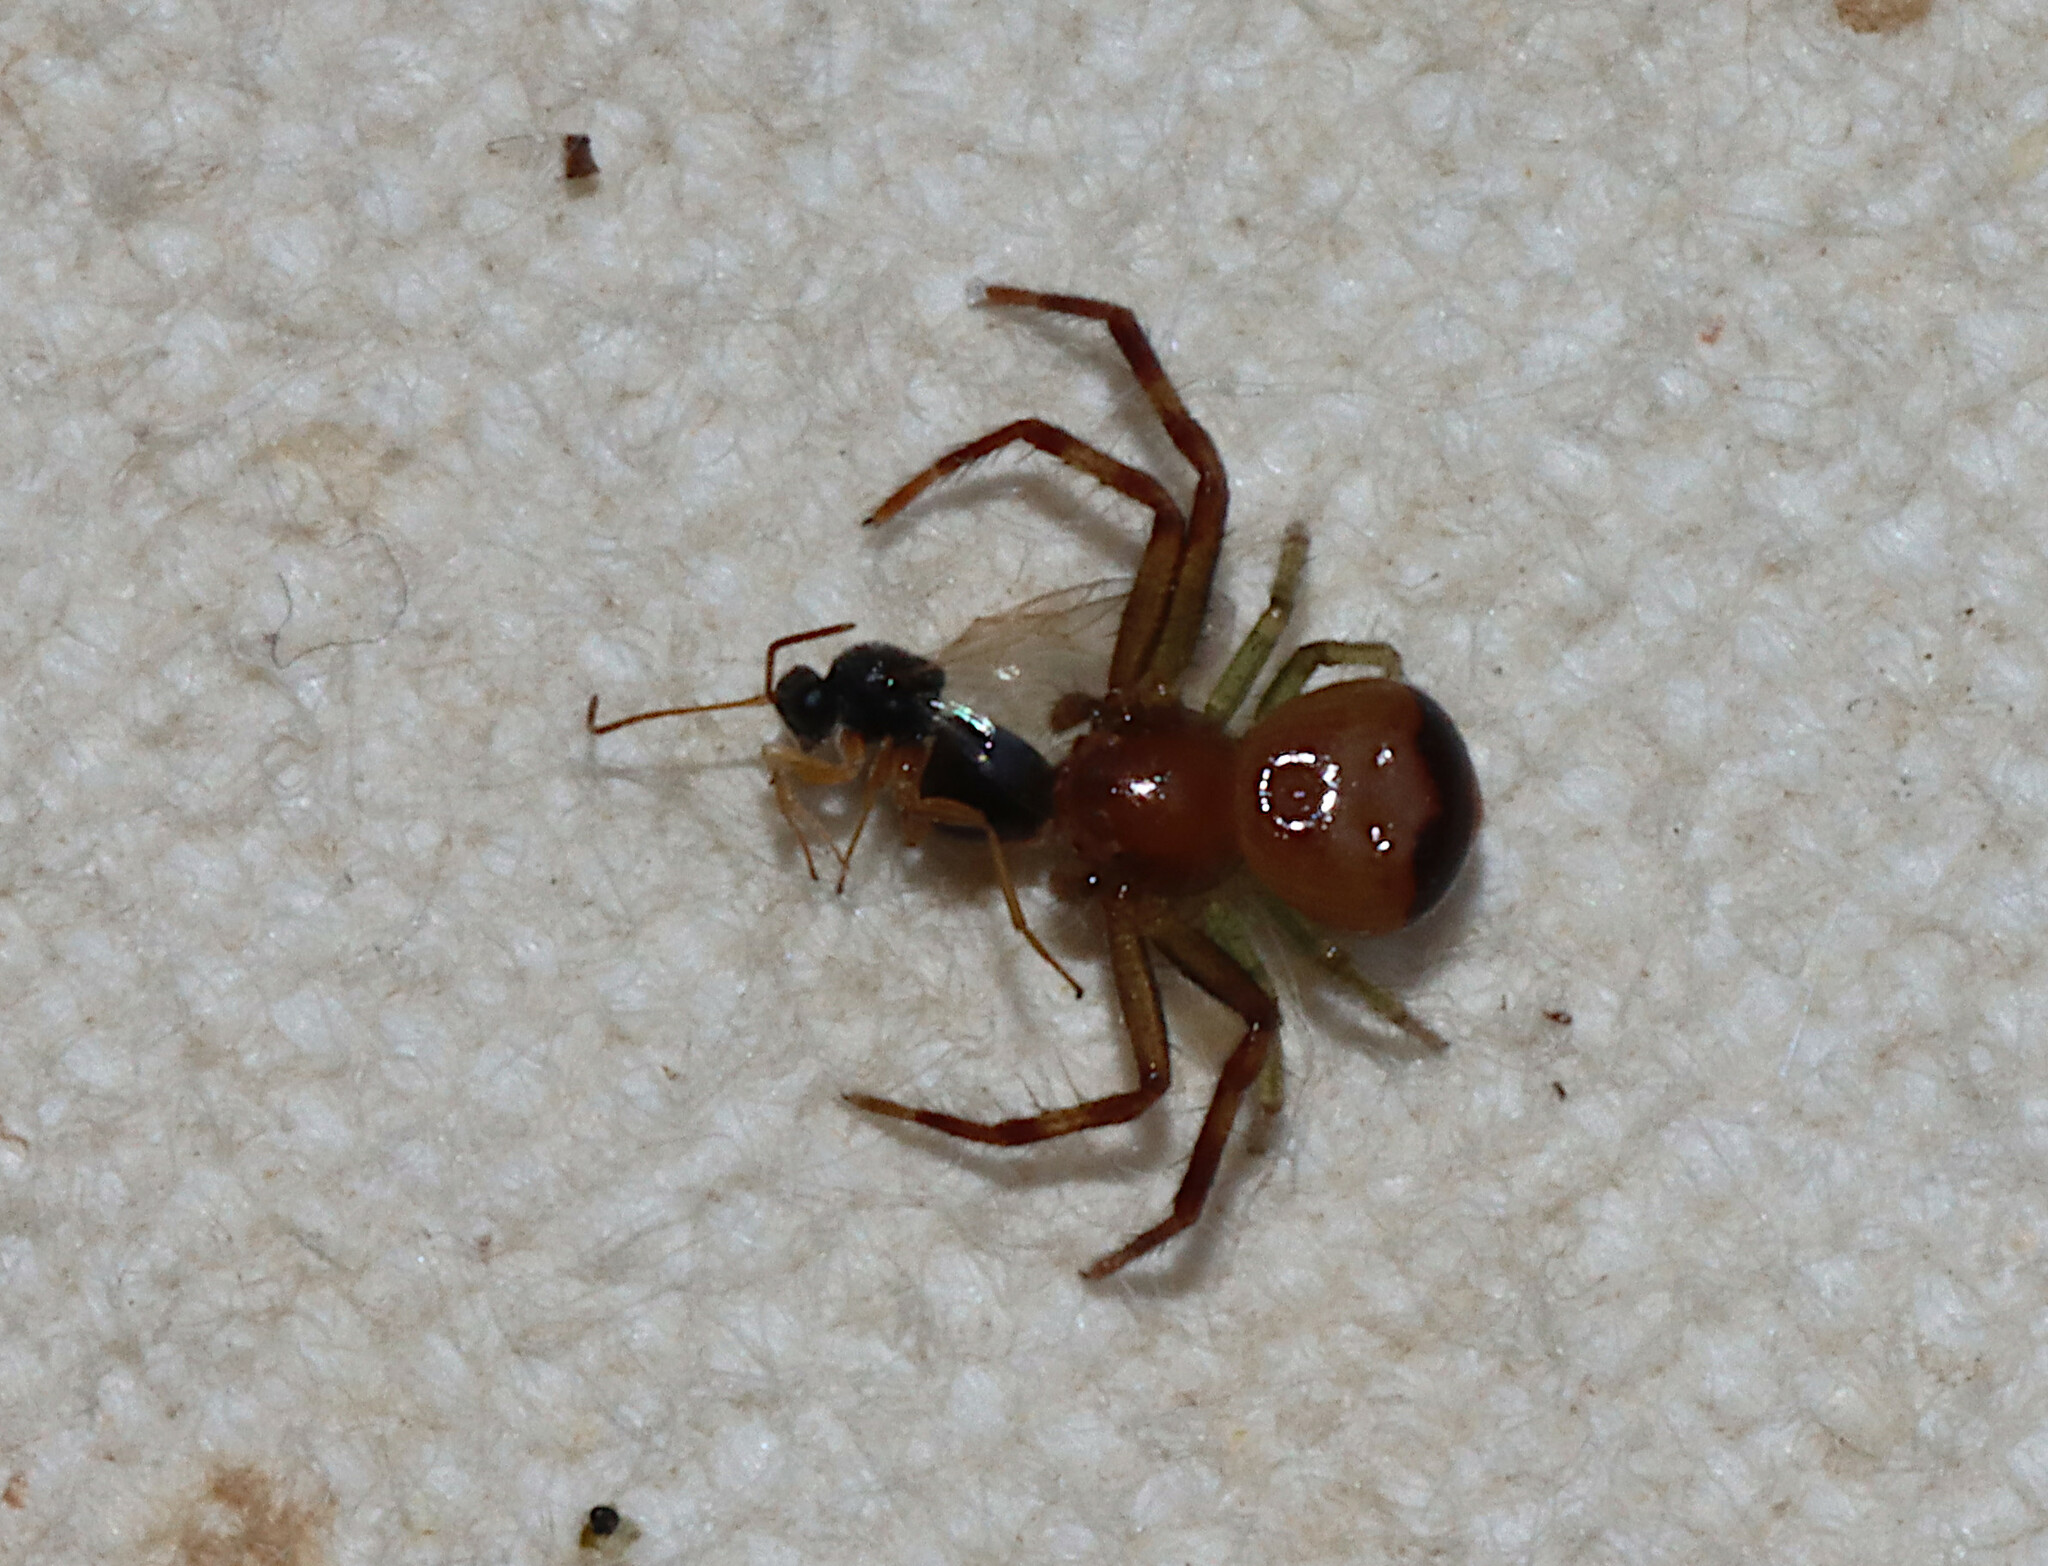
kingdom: Animalia
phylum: Arthropoda
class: Arachnida
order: Araneae
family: Thomisidae
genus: Synema
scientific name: Synema parvulum
